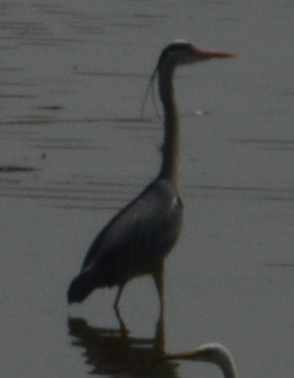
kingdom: Animalia
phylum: Chordata
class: Aves
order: Pelecaniformes
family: Ardeidae
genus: Ardea
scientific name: Ardea cinerea
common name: Grey heron
